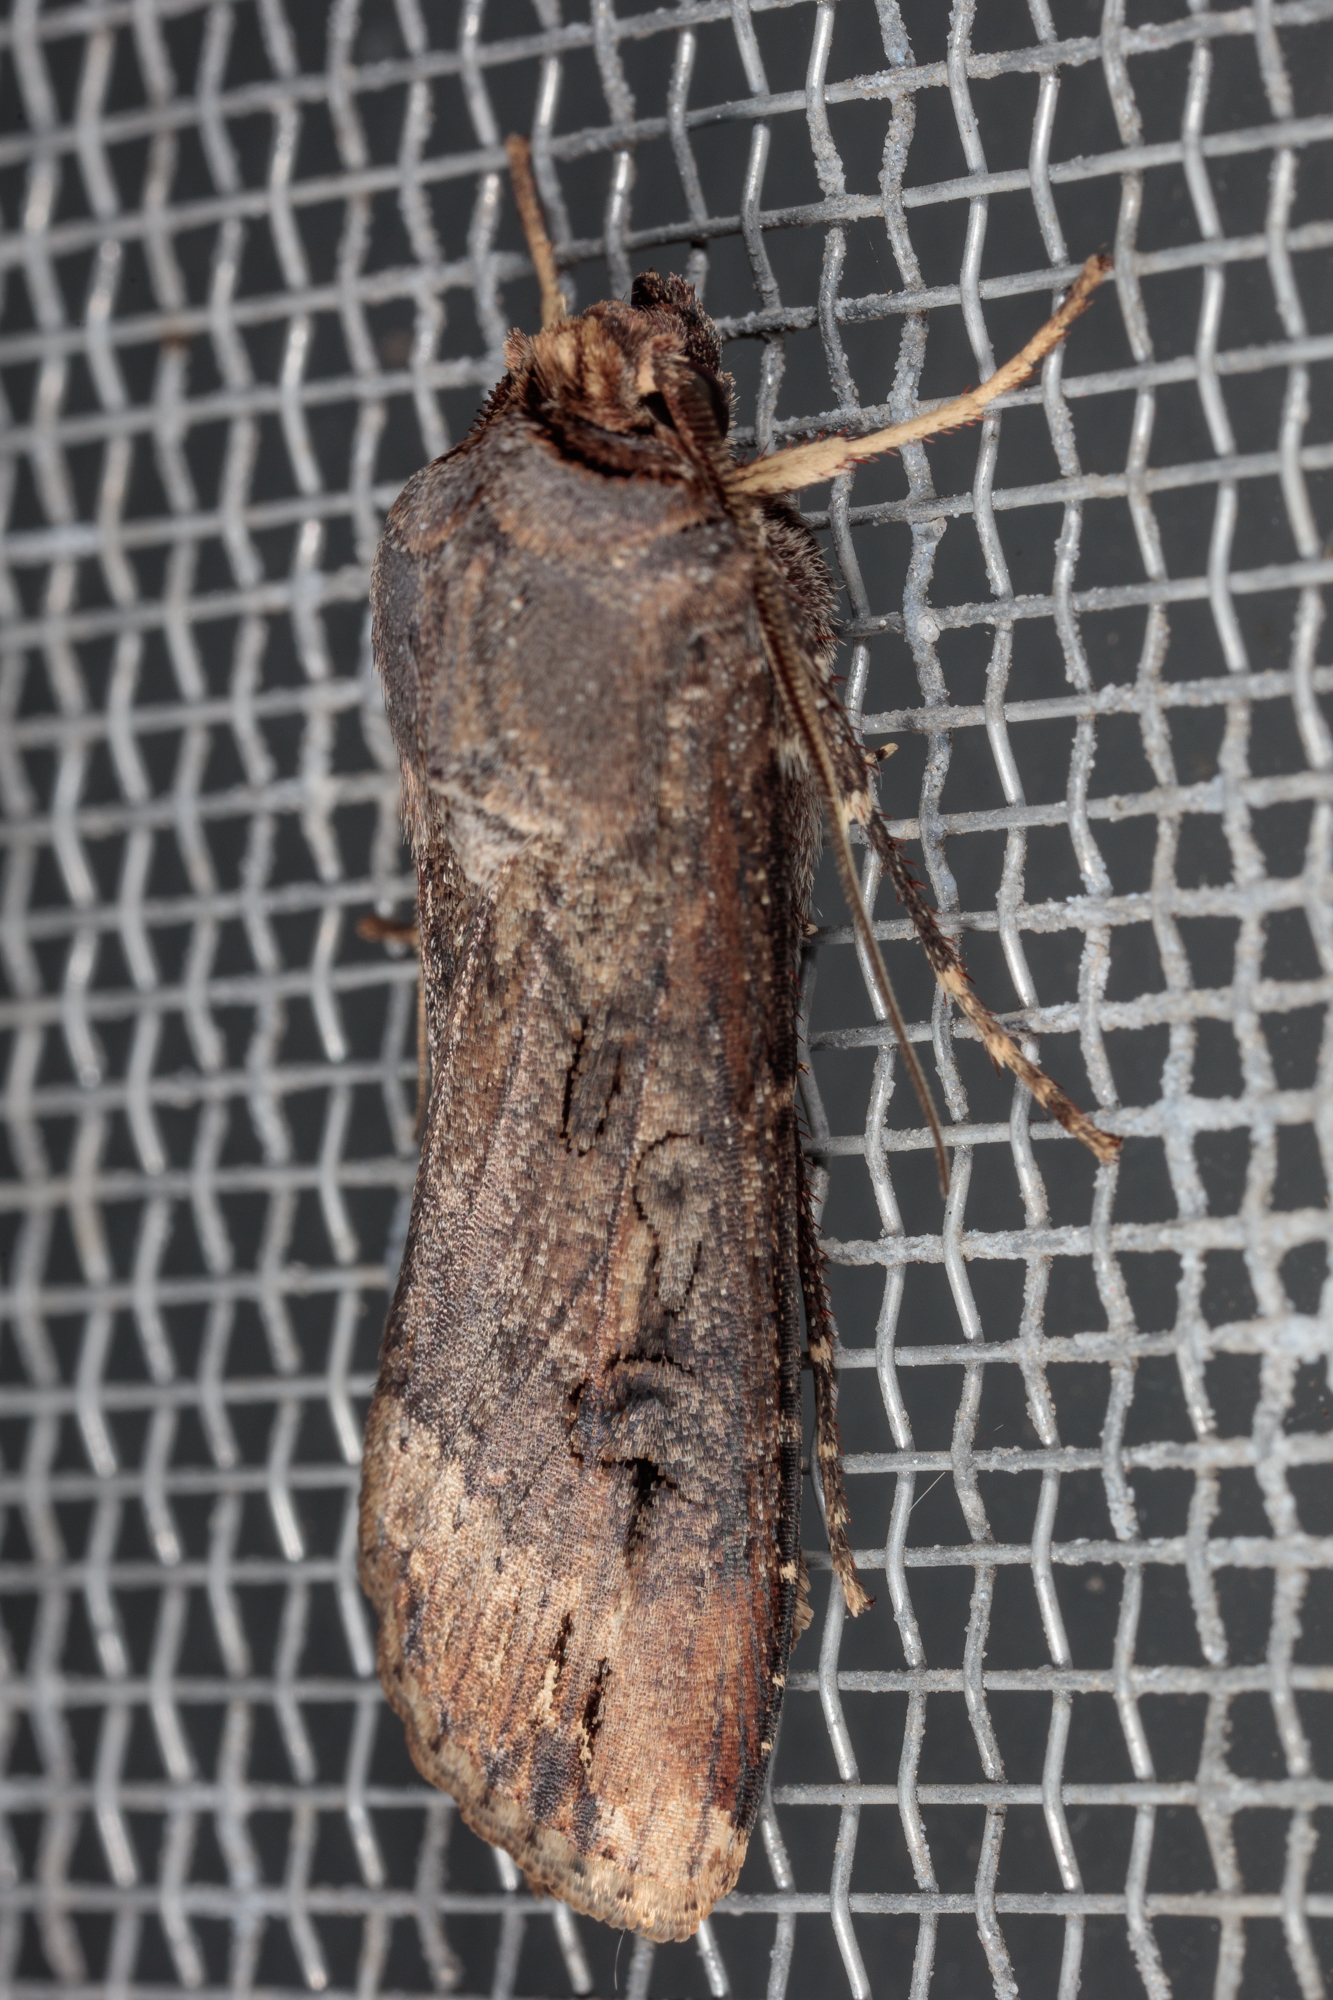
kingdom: Animalia
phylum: Arthropoda
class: Insecta
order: Lepidoptera
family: Noctuidae
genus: Agrotis
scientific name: Agrotis ipsilon
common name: Dark sword-grass
